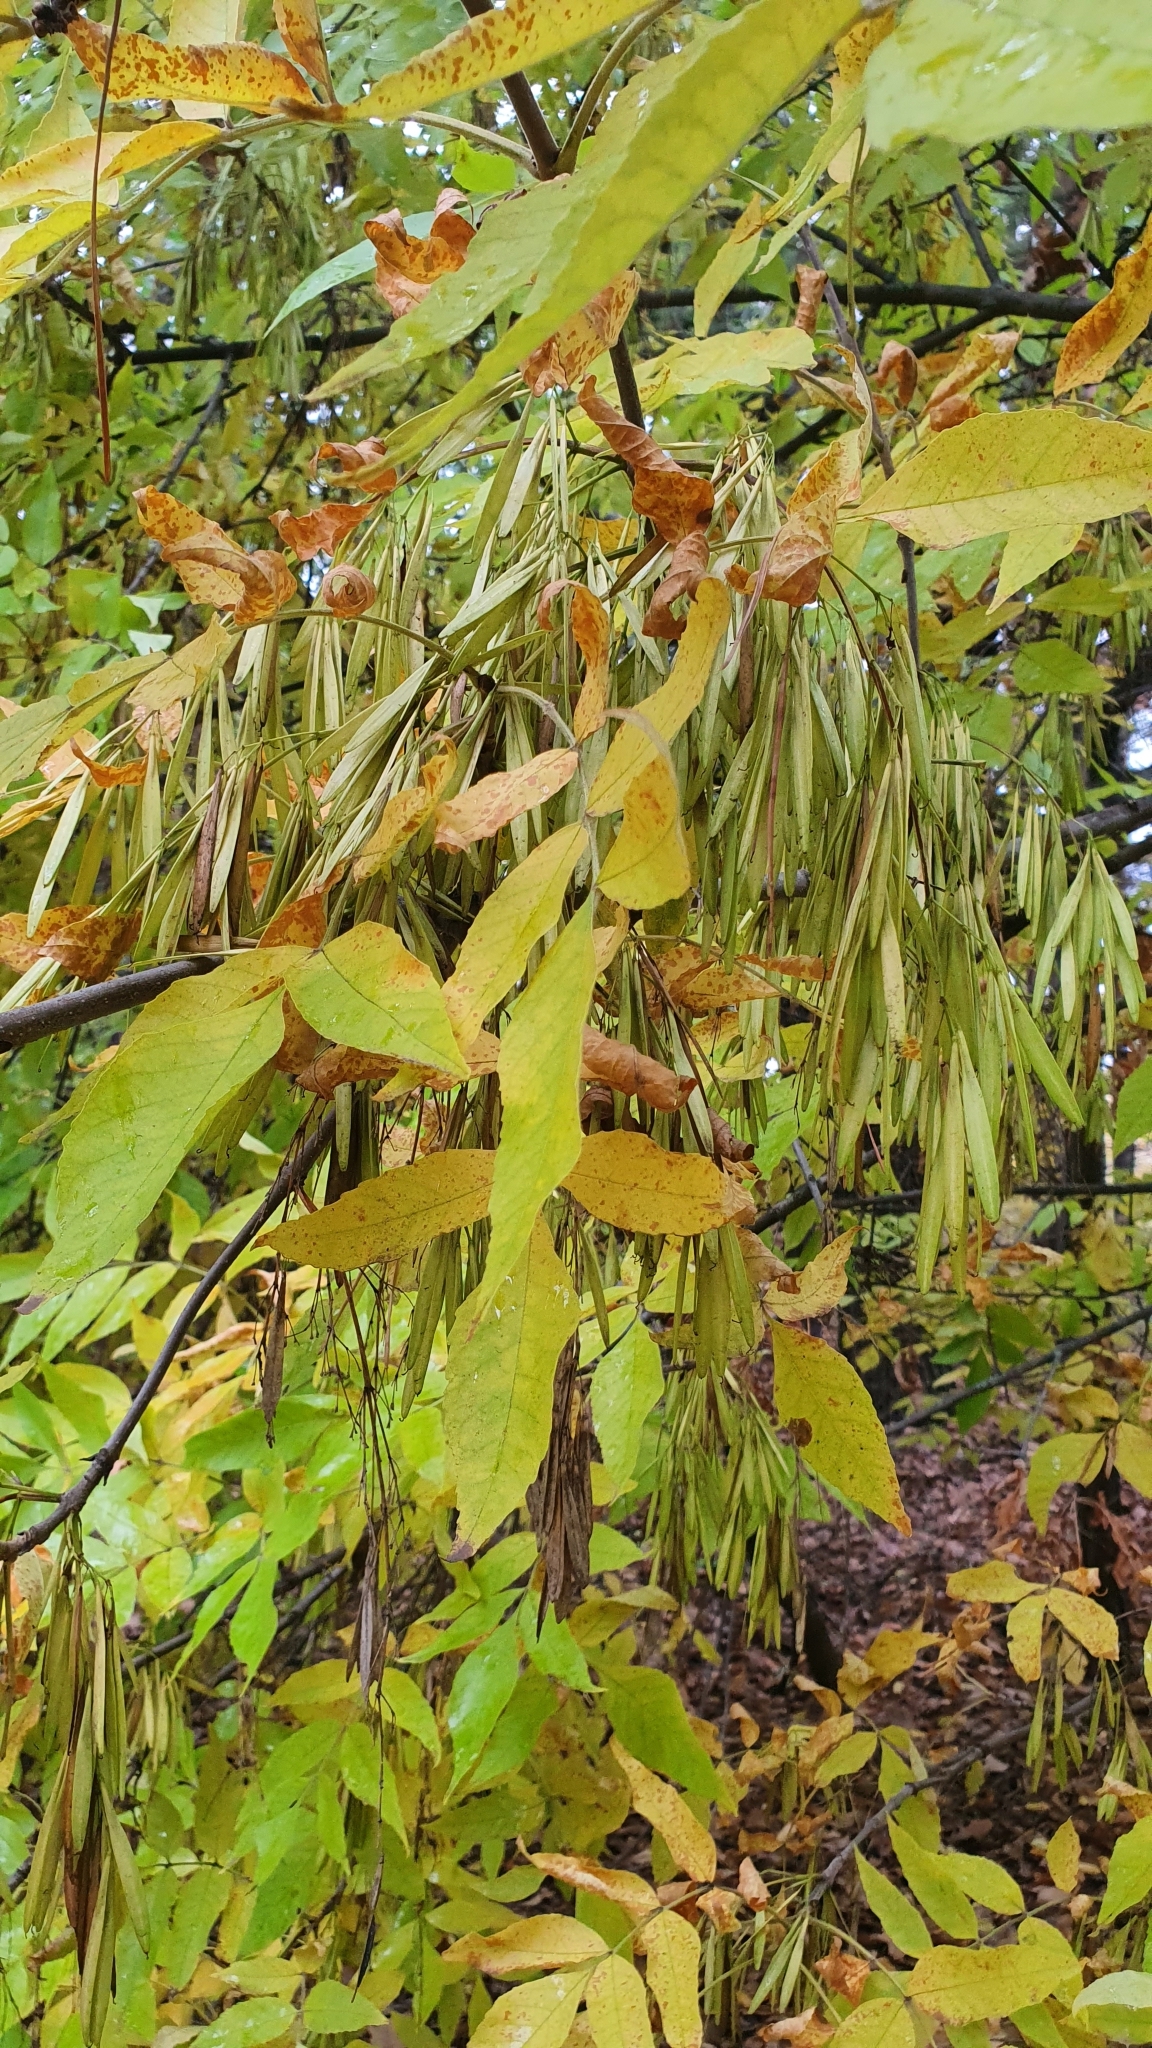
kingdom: Plantae
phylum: Tracheophyta
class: Magnoliopsida
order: Lamiales
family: Oleaceae
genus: Fraxinus
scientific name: Fraxinus pennsylvanica
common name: Green ash
